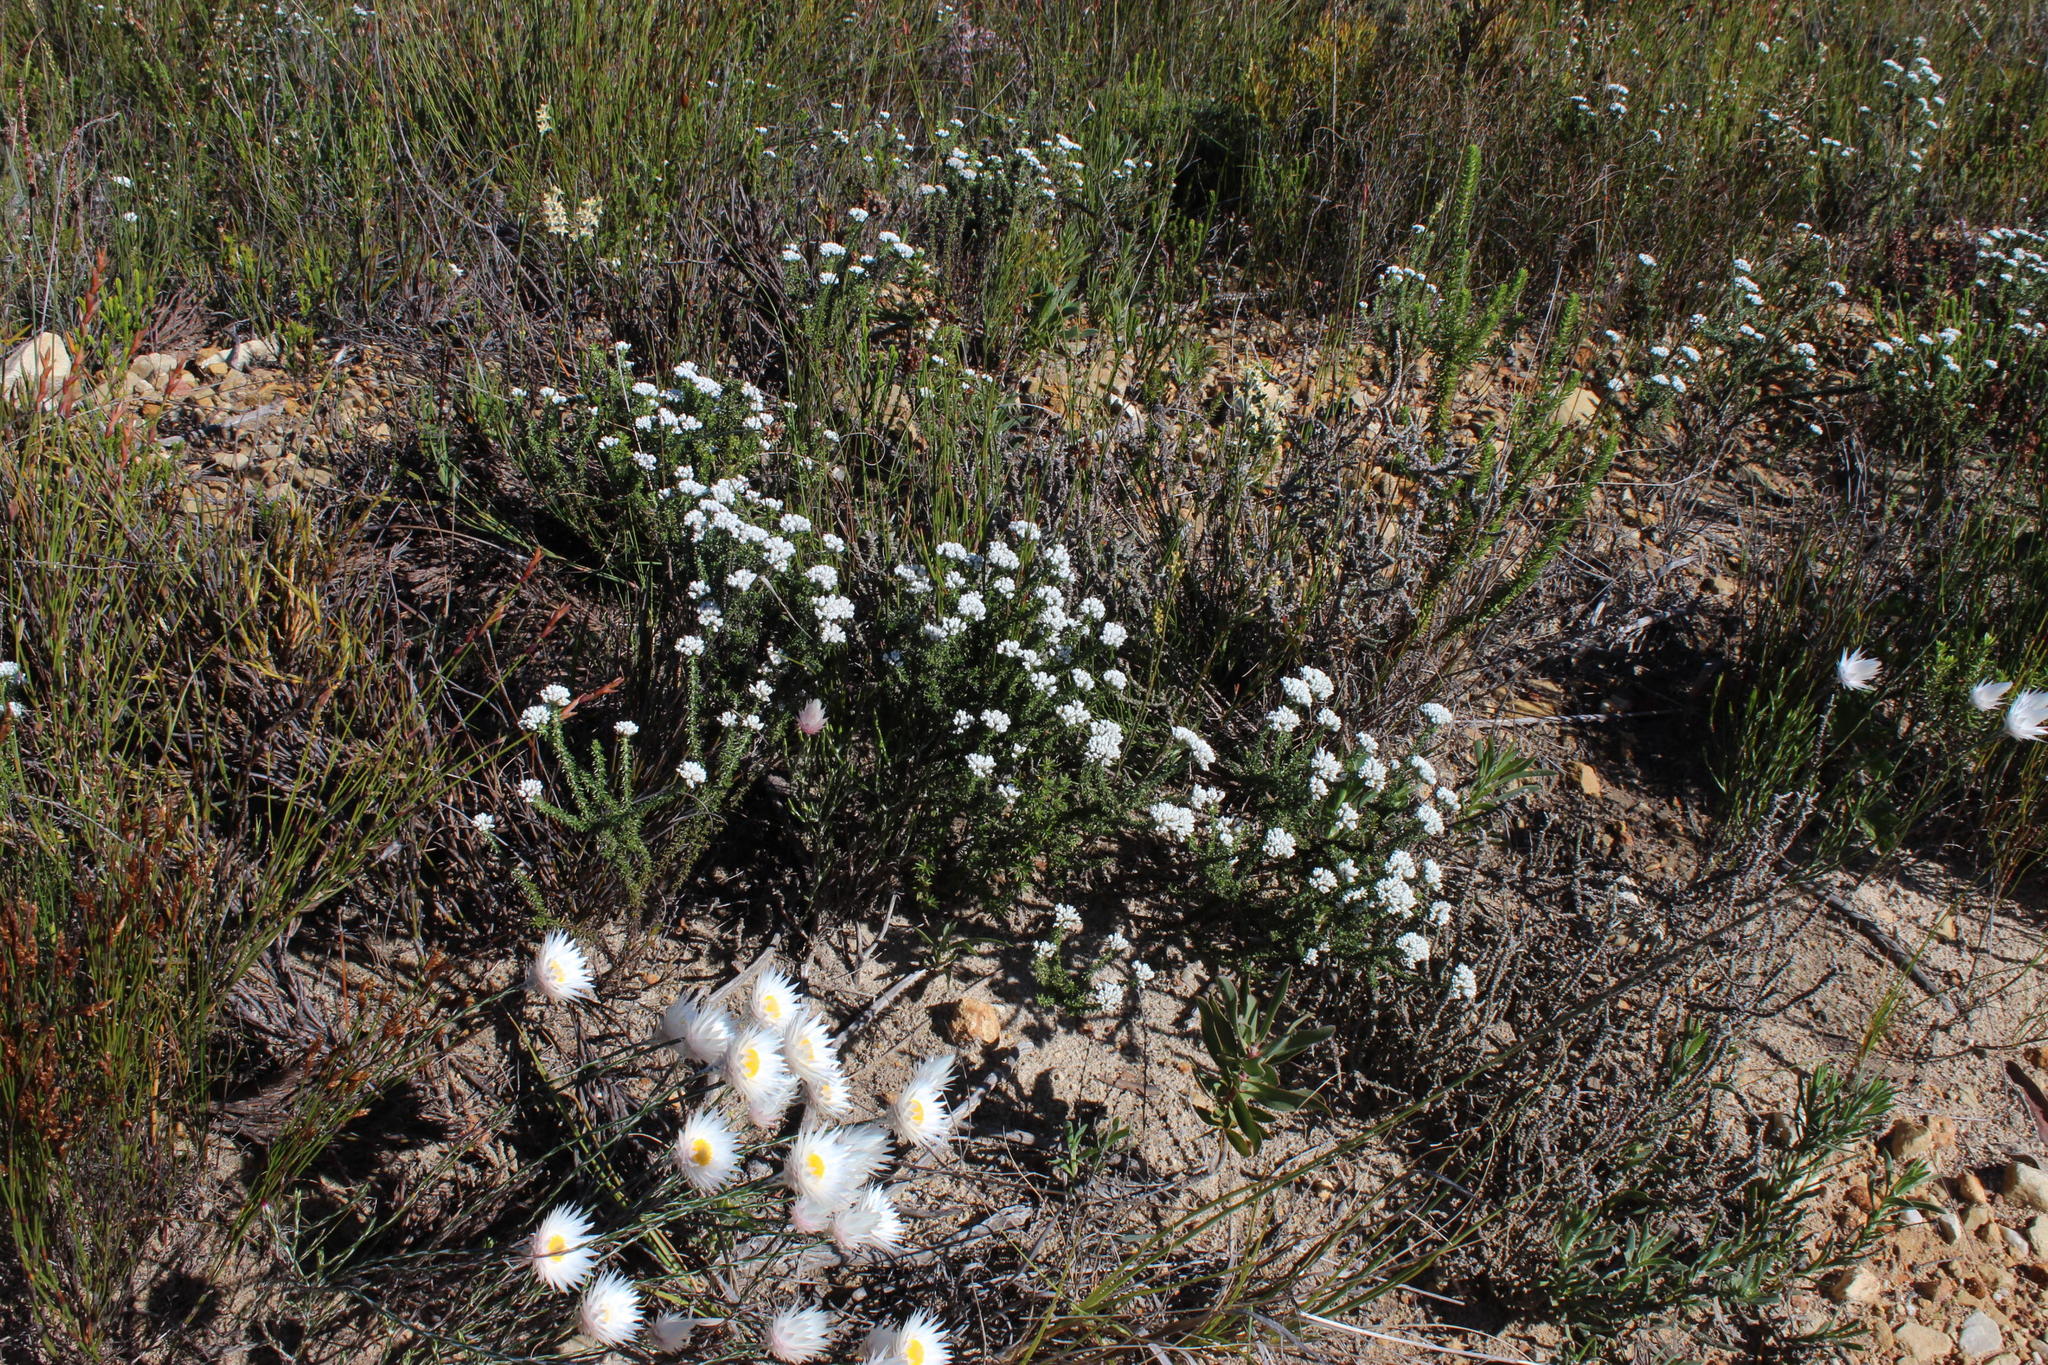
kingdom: Plantae
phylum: Tracheophyta
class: Magnoliopsida
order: Asterales
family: Asteraceae
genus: Metalasia
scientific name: Metalasia brevifolia
